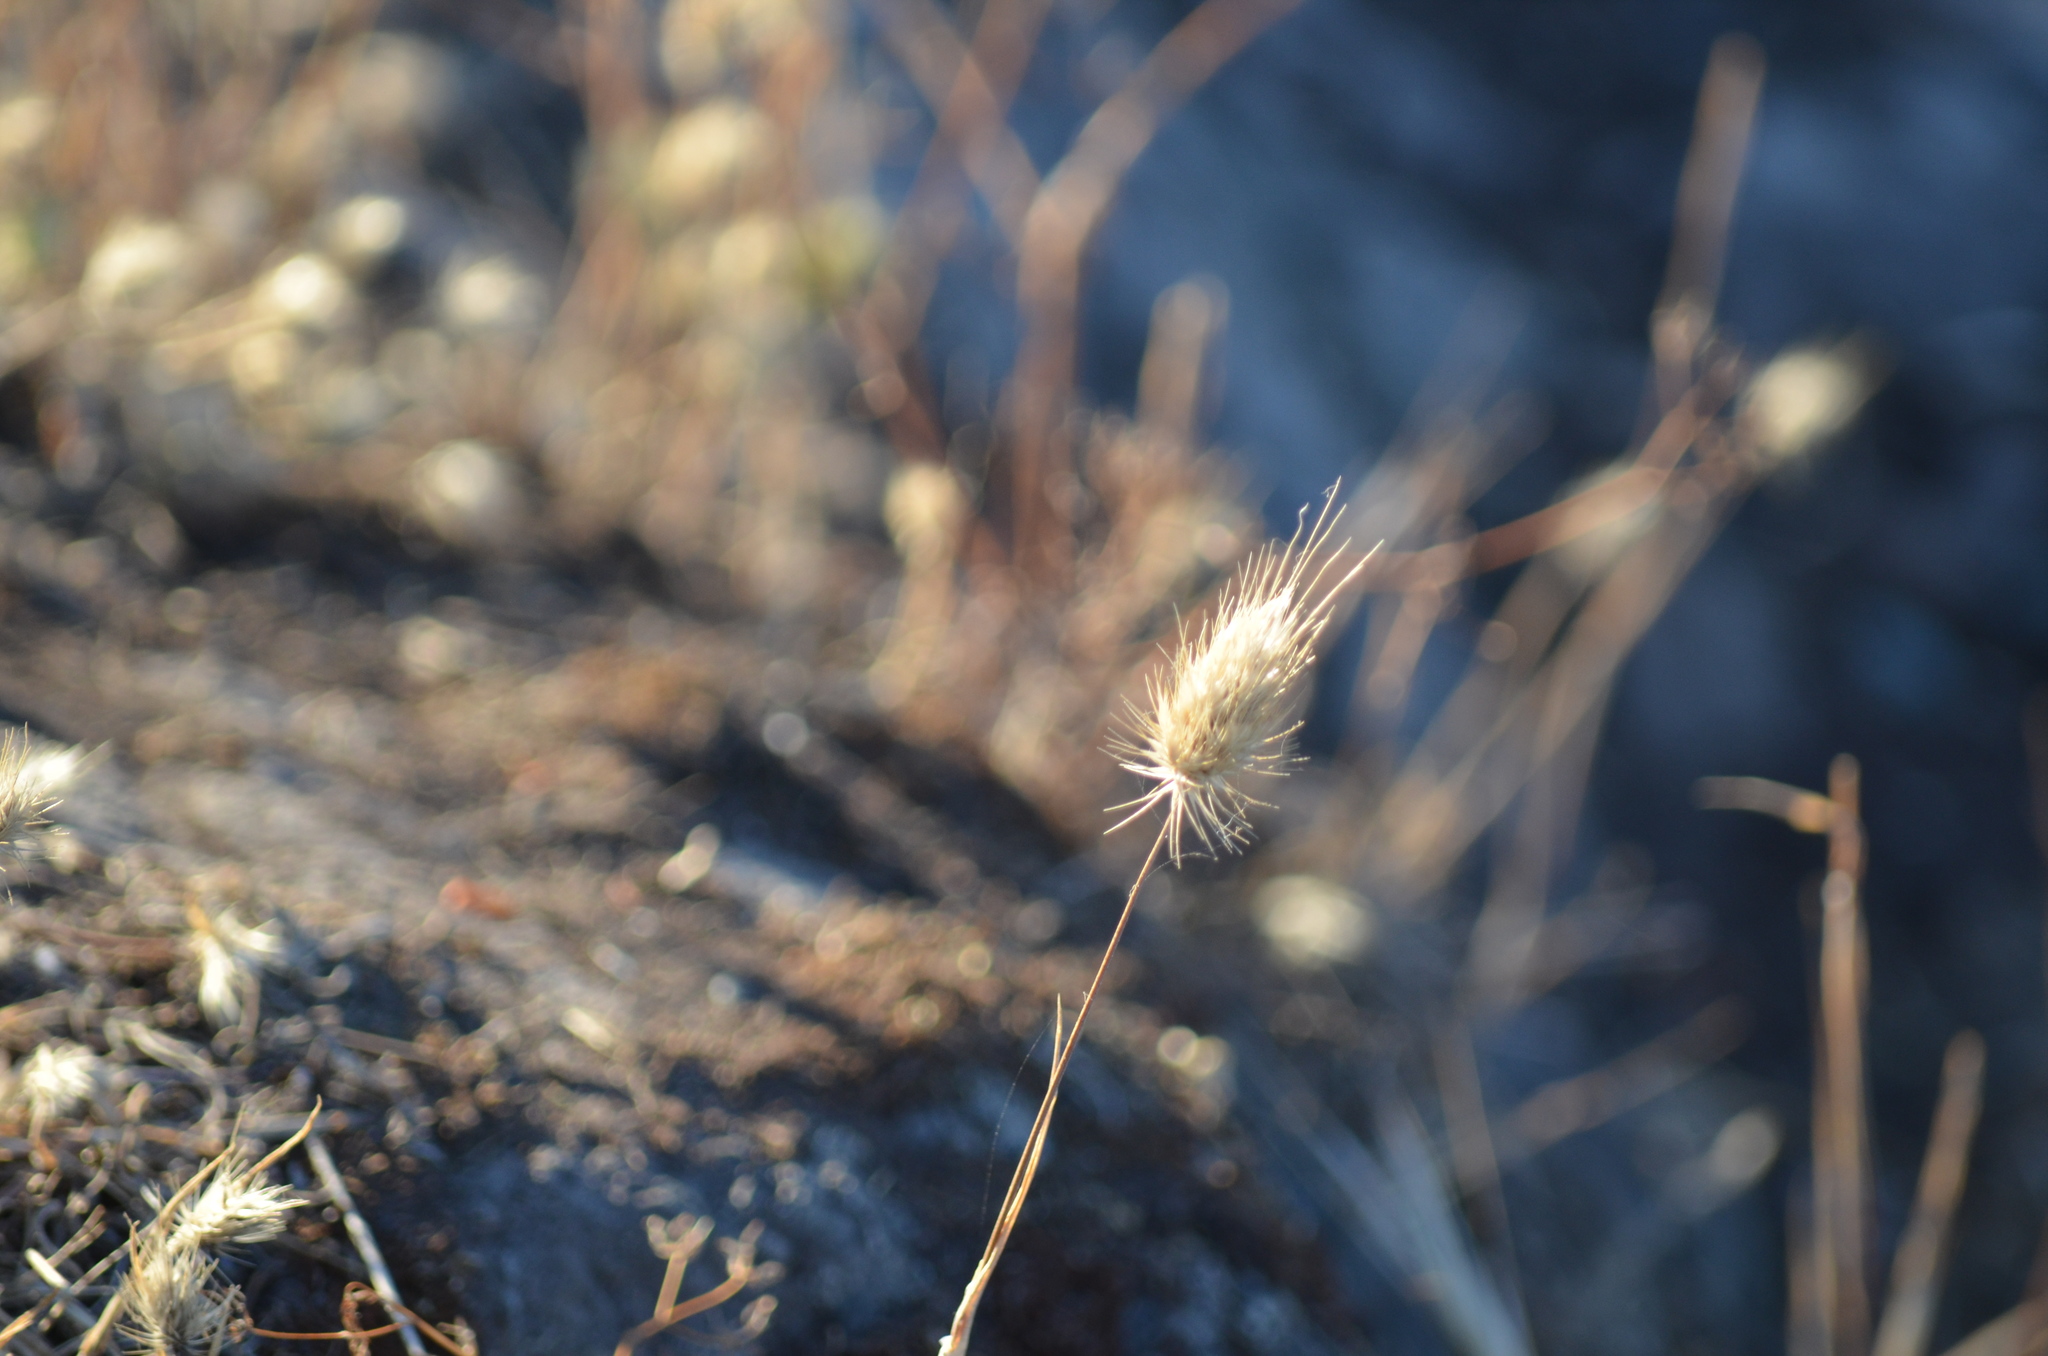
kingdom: Plantae
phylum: Tracheophyta
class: Liliopsida
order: Poales
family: Poaceae
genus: Cynosurus
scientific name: Cynosurus echinatus
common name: Rough dog's-tail
